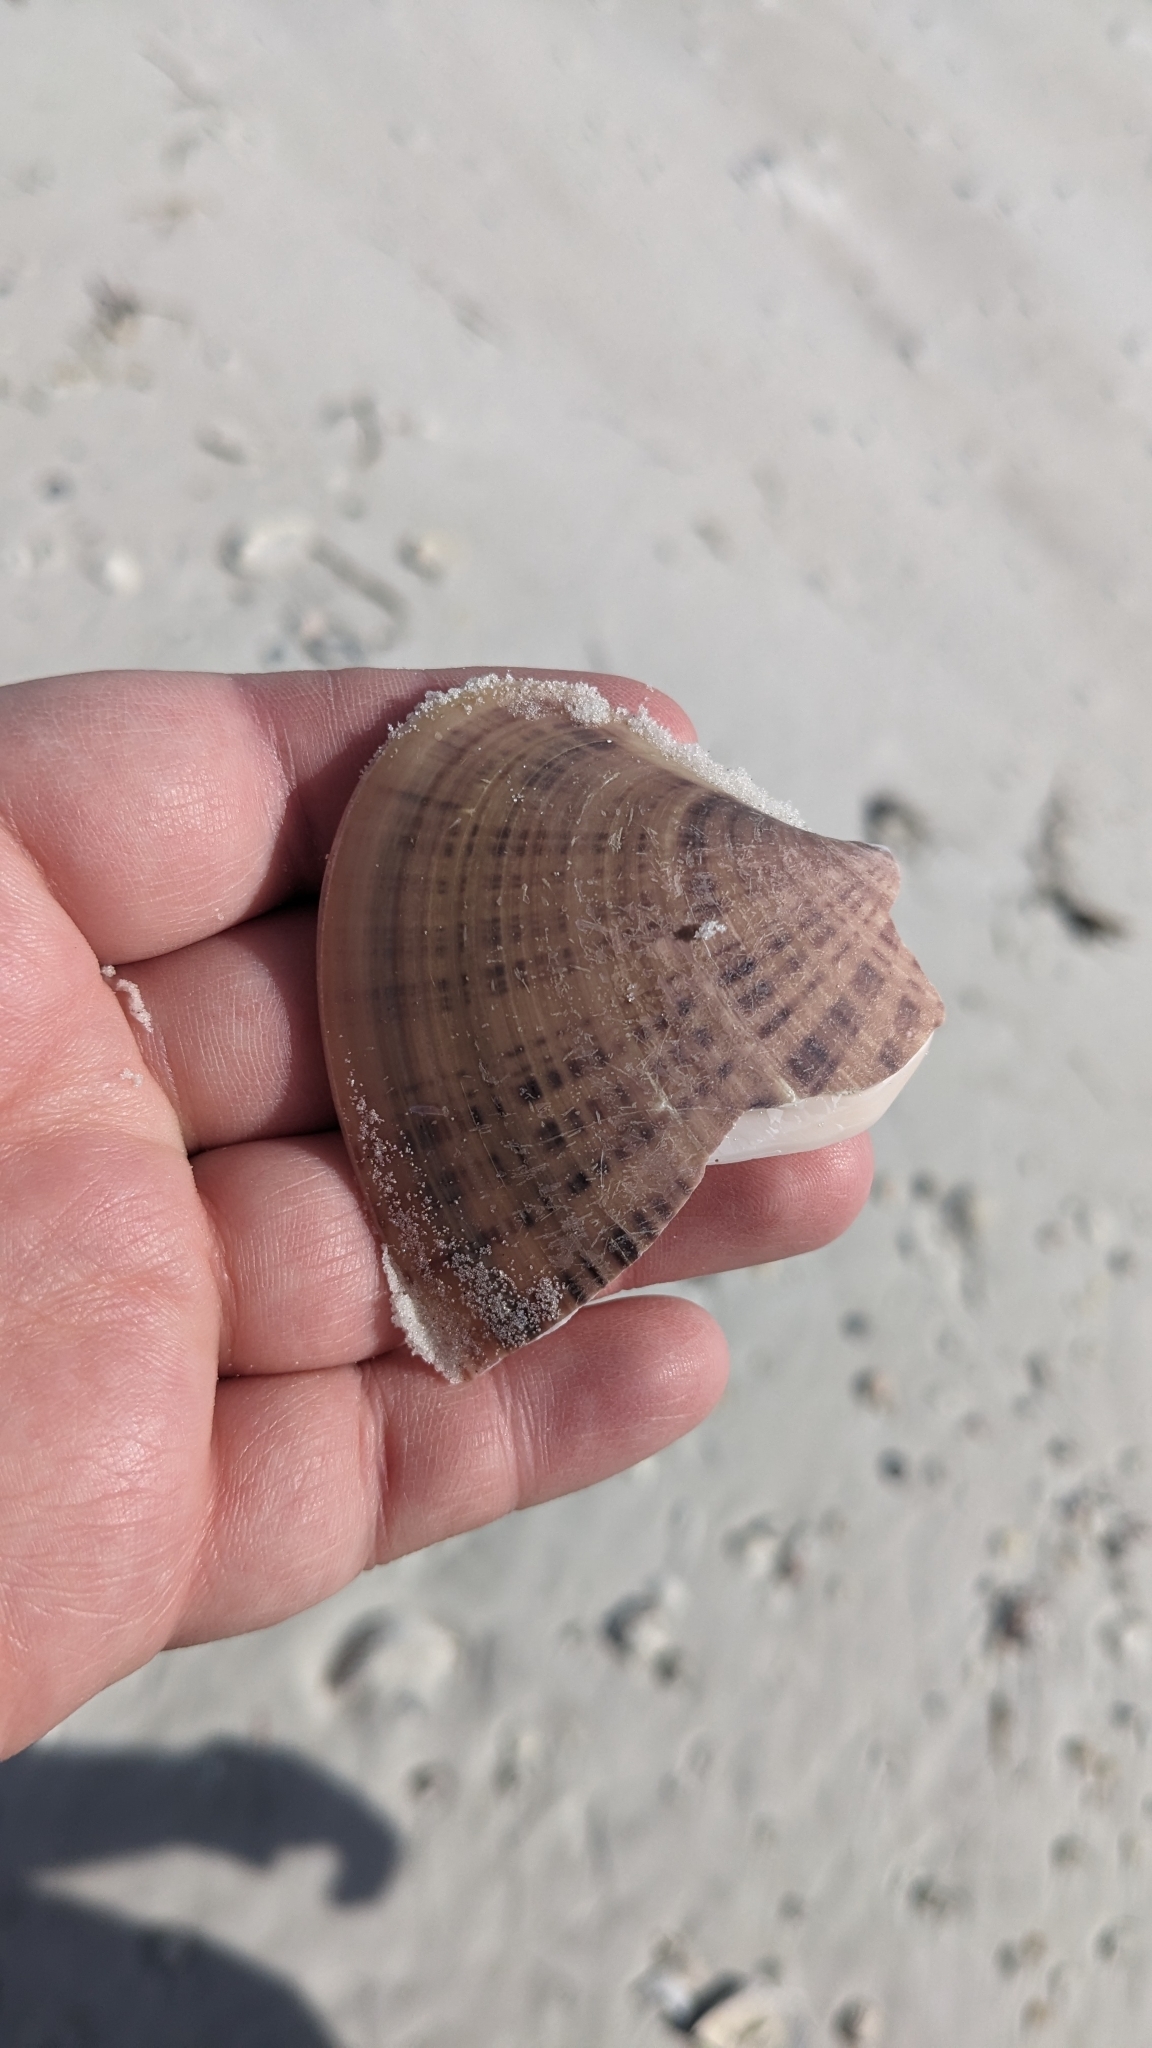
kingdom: Animalia
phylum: Mollusca
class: Bivalvia
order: Venerida
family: Veneridae
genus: Macrocallista
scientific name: Macrocallista nimbosa
